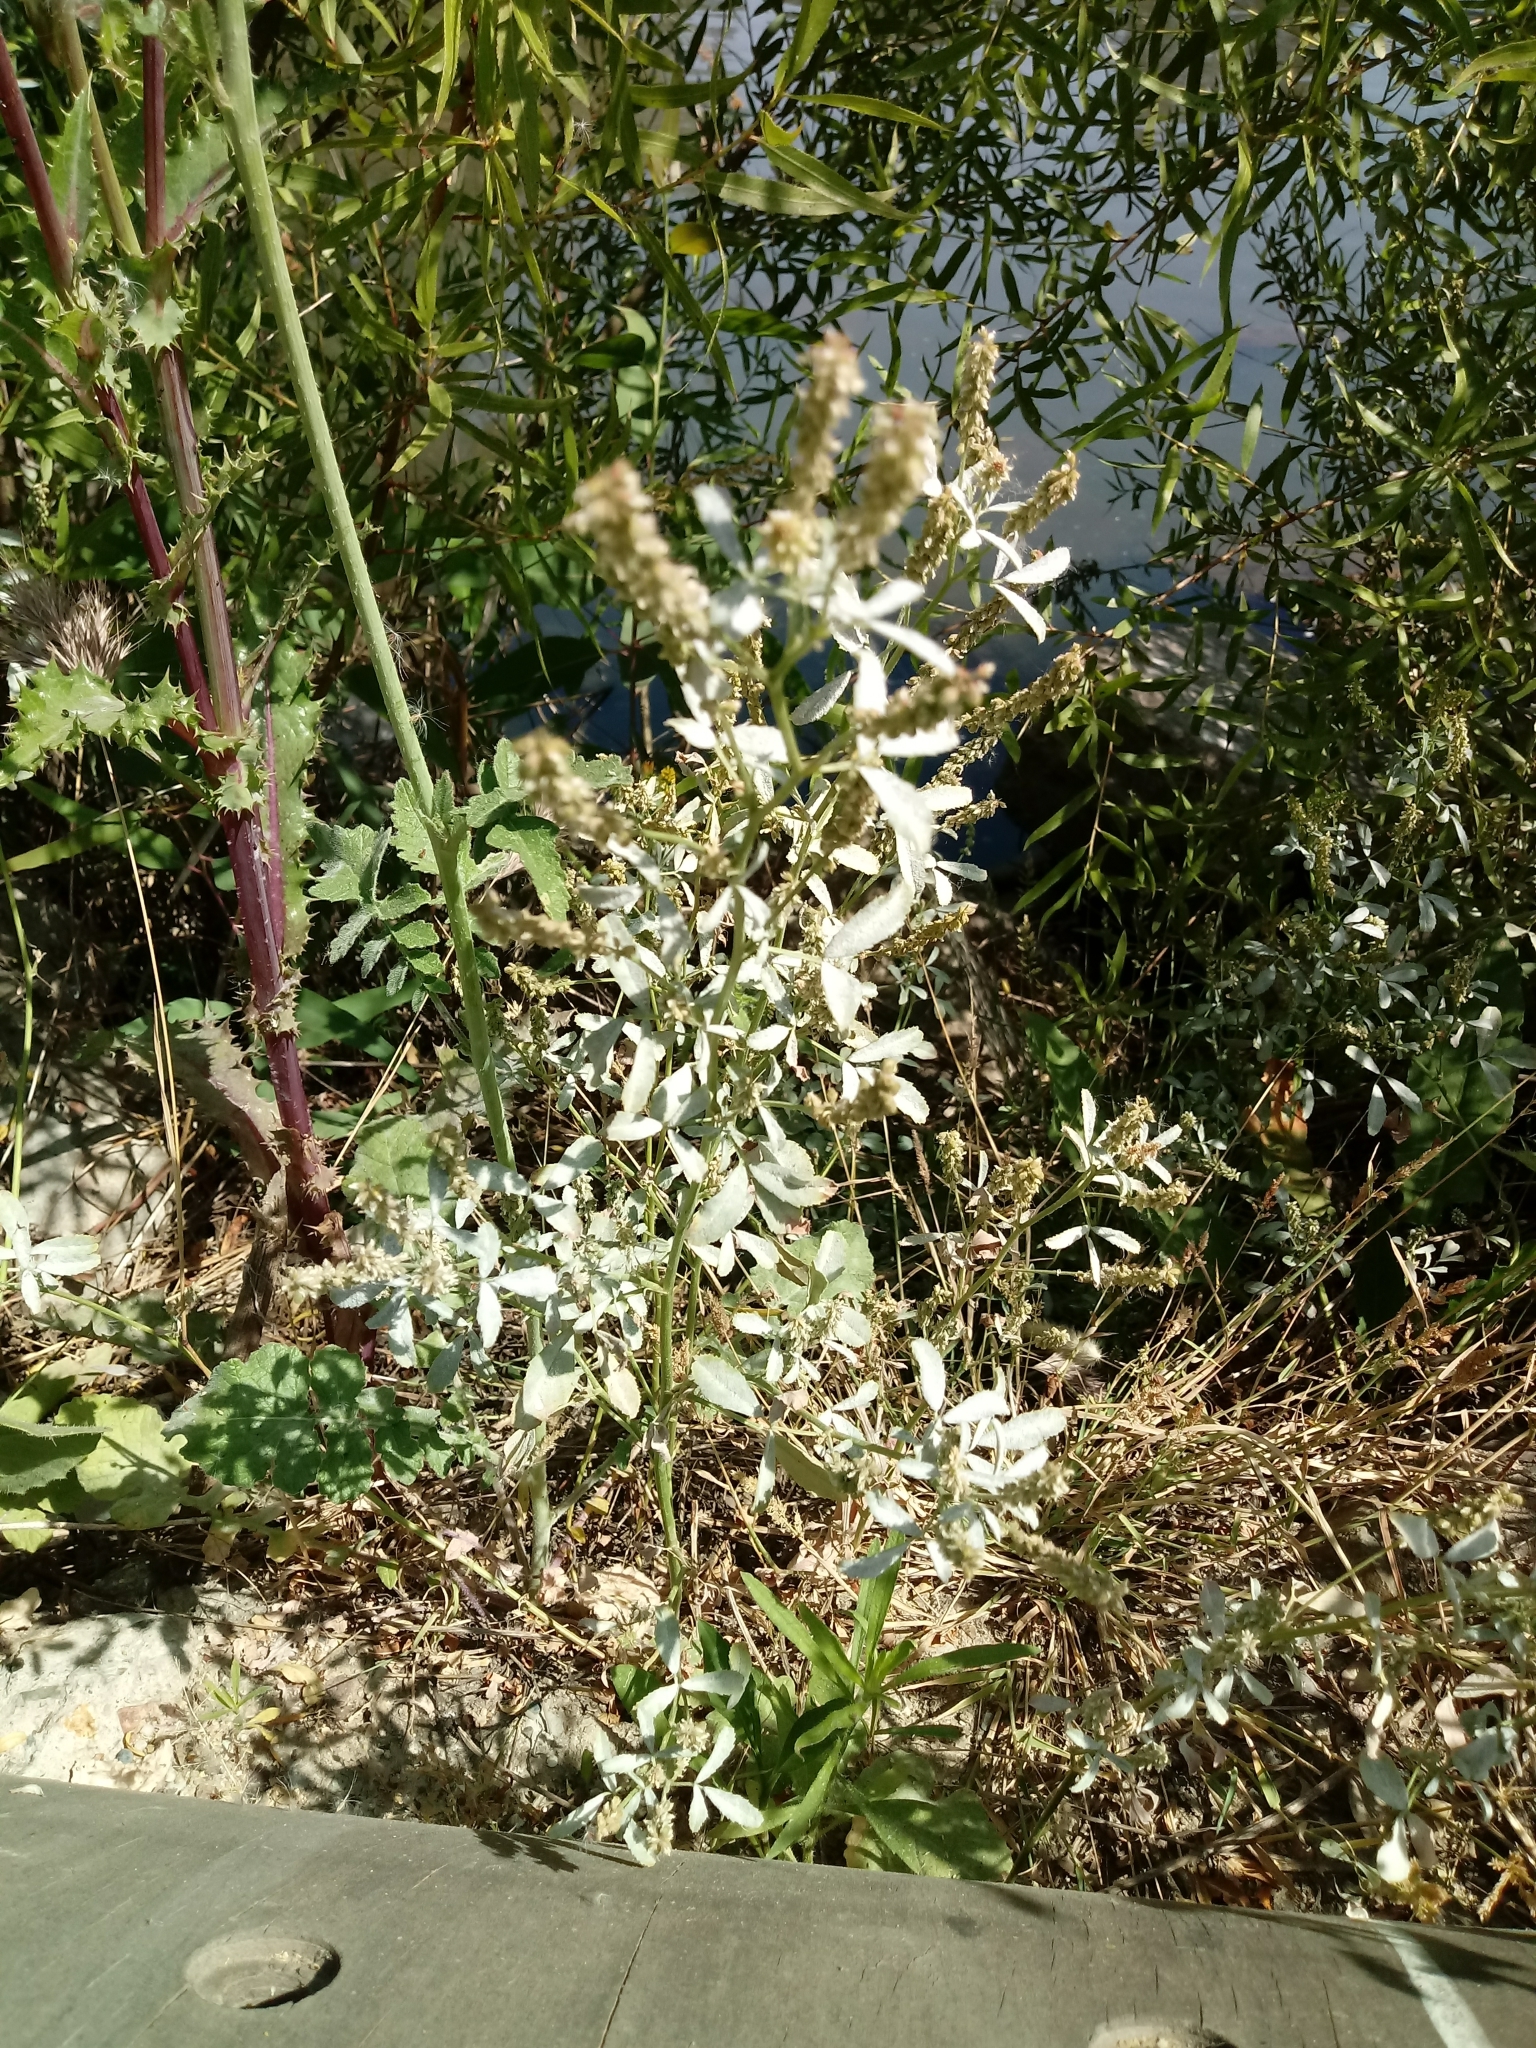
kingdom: Plantae
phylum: Tracheophyta
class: Magnoliopsida
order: Fabales
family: Fabaceae
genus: Melilotus
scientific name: Melilotus indicus
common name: Small melilot
